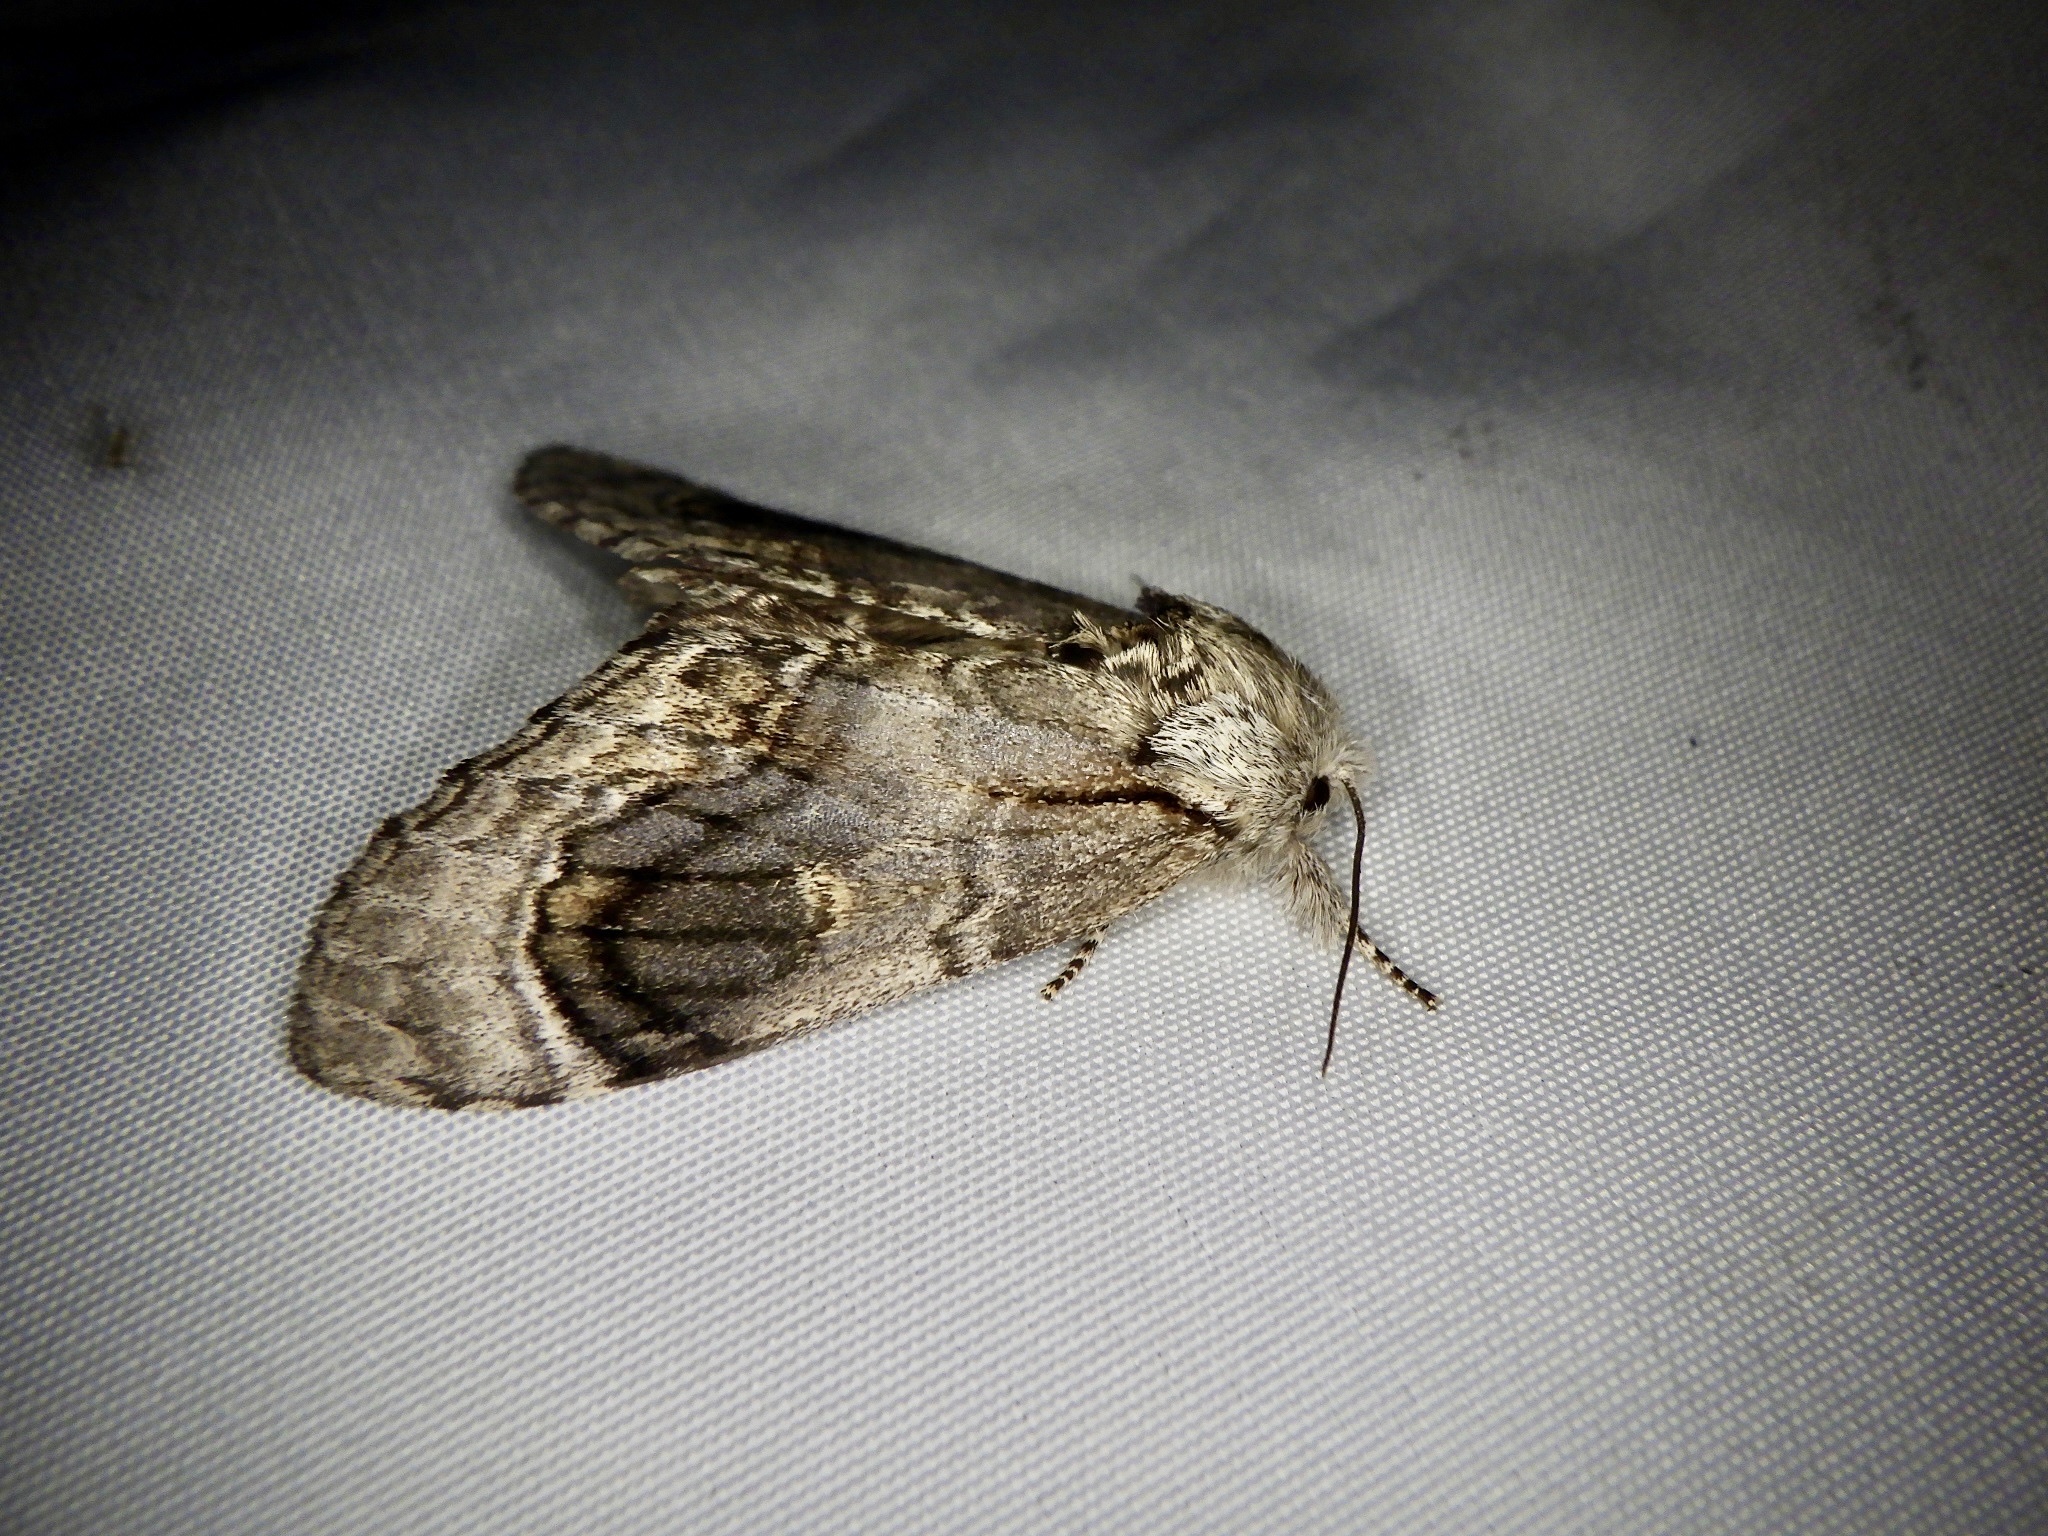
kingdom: Animalia
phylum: Arthropoda
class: Insecta
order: Lepidoptera
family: Notodontidae
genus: Fentonia
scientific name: Fentonia ocypete
